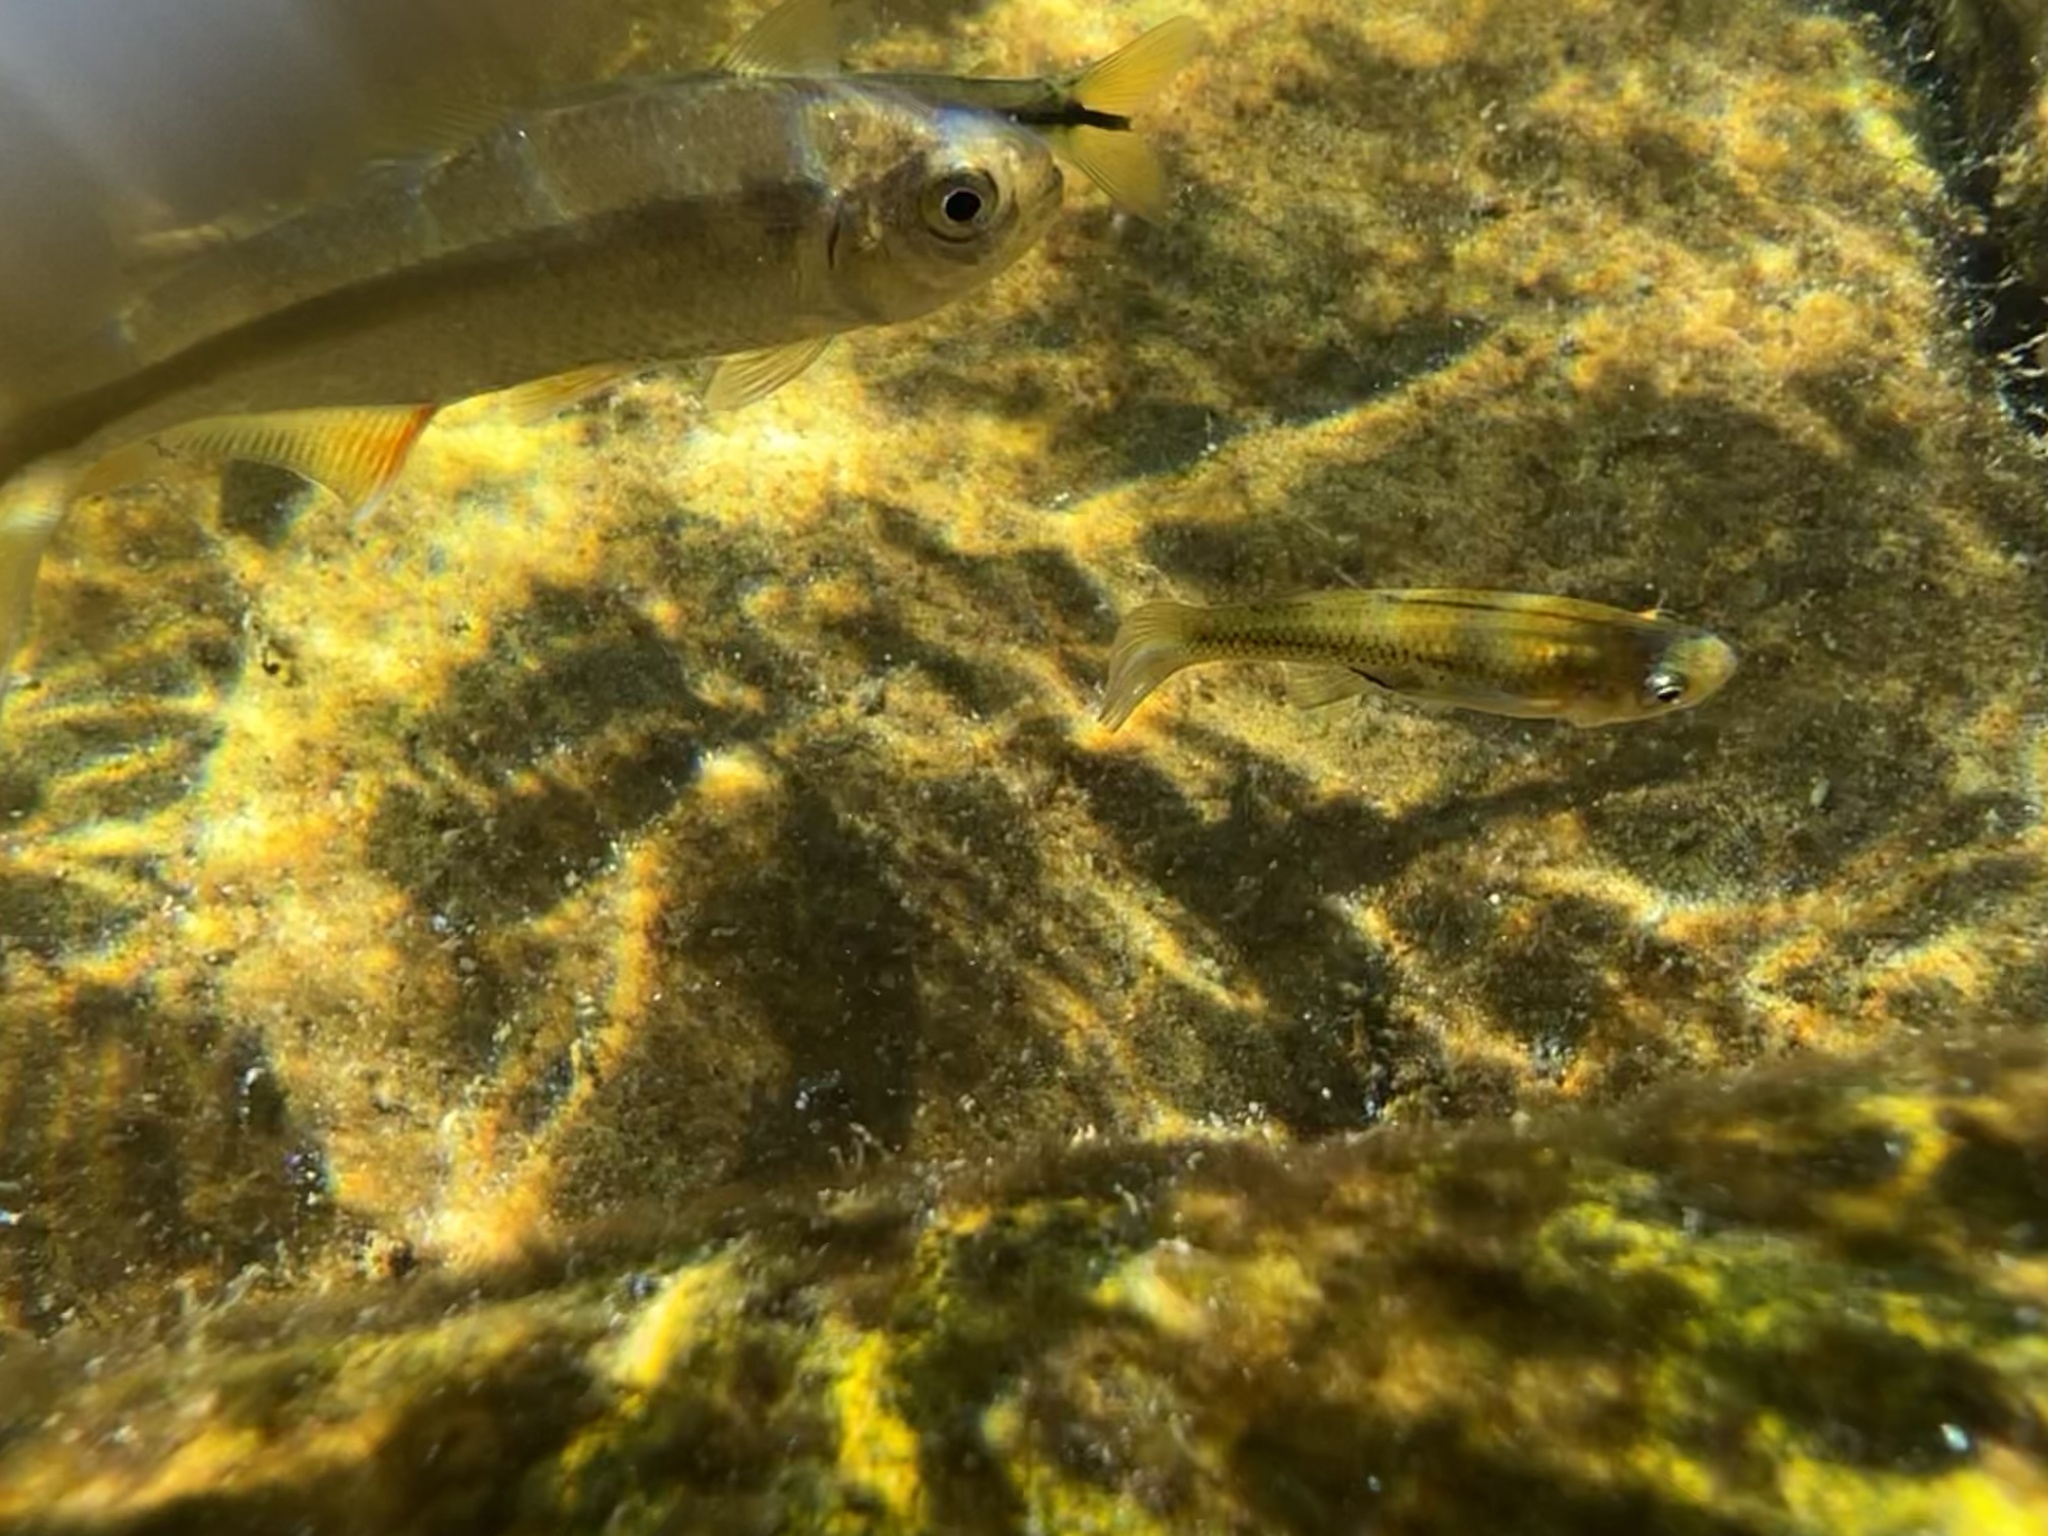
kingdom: Animalia
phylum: Chordata
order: Cyprinodontiformes
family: Poeciliidae
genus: Gambusia
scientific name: Gambusia nobilis
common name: Pecos gambusia
